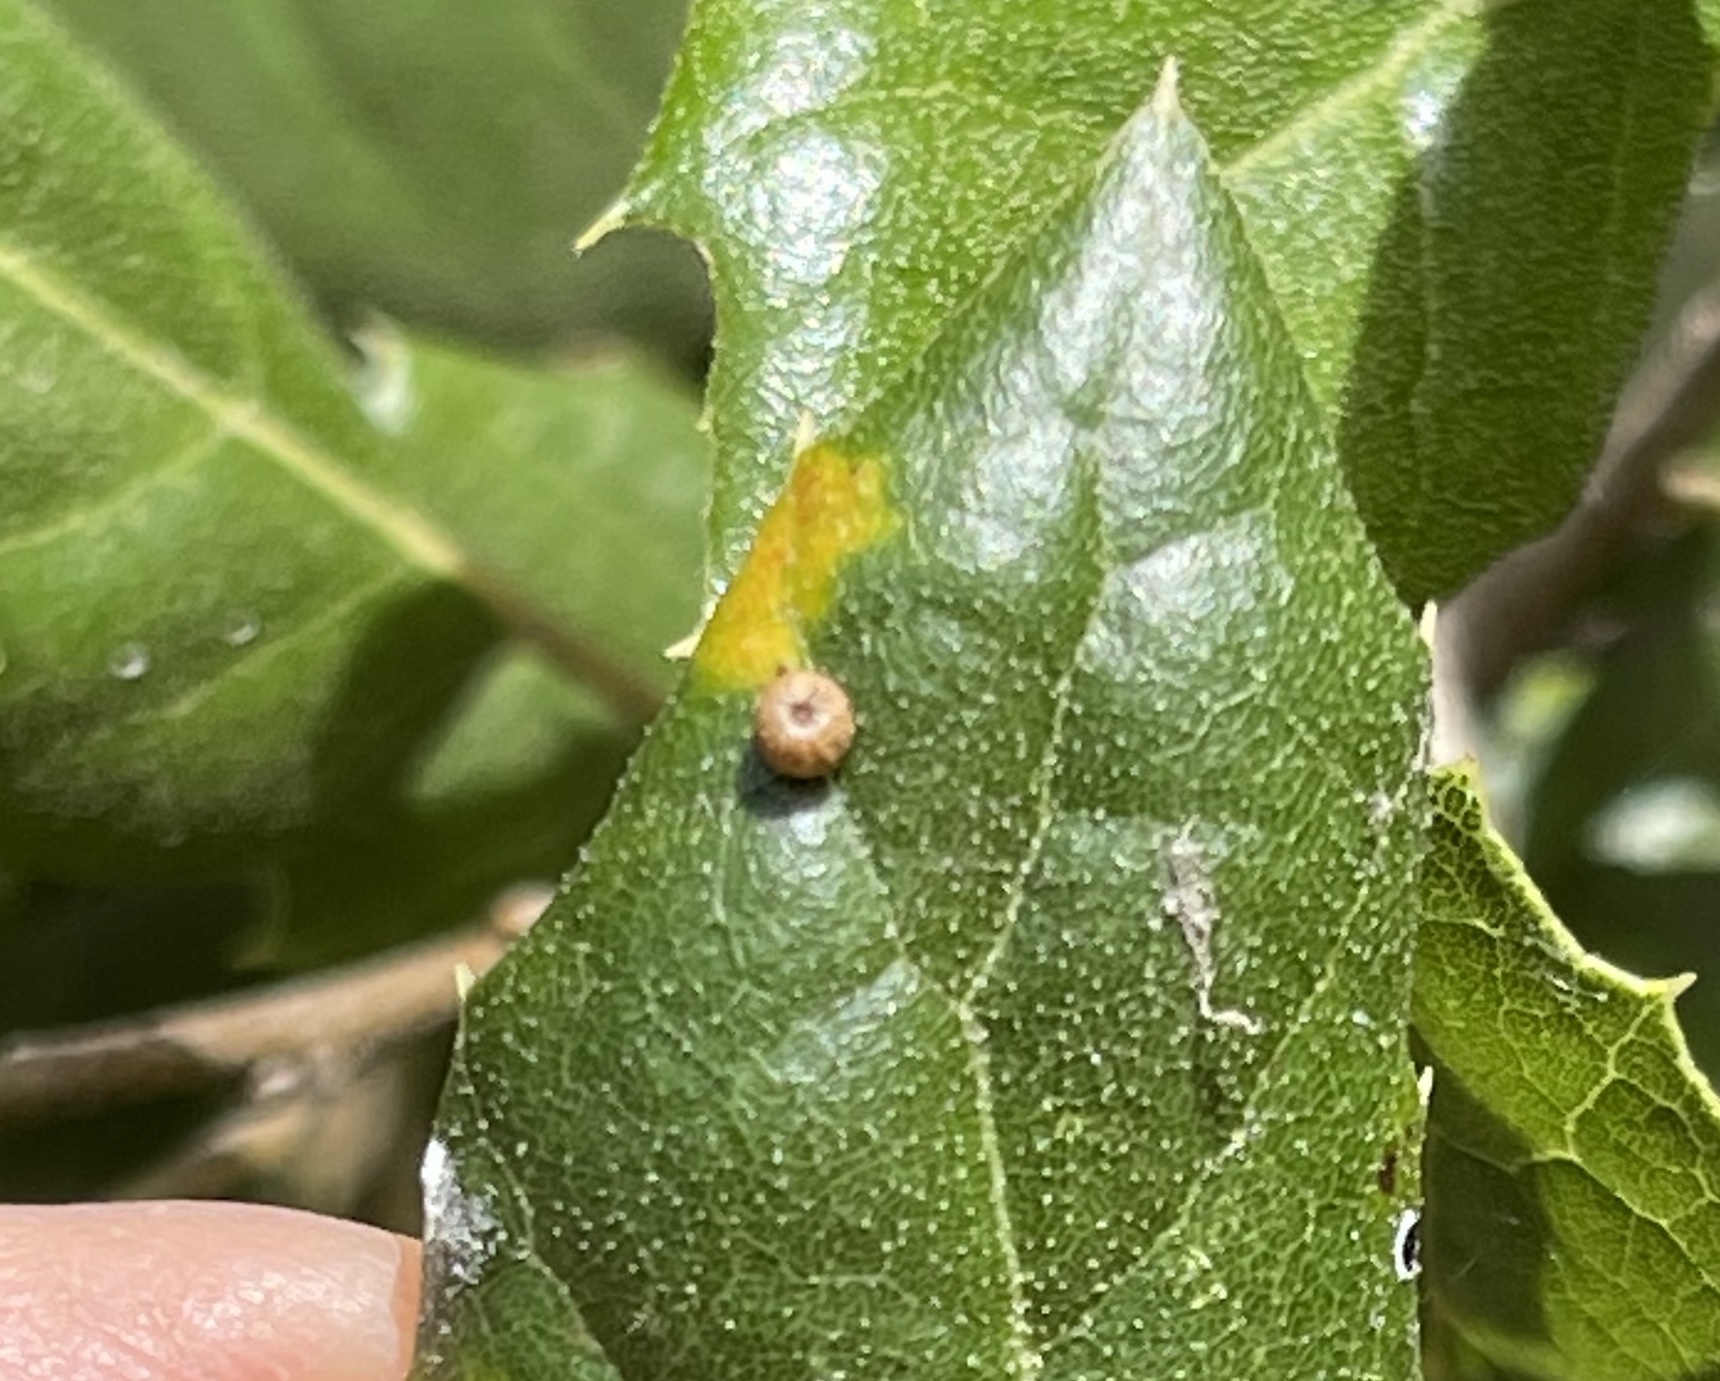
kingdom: Animalia
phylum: Arthropoda
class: Insecta
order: Hymenoptera
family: Cynipidae
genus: Dryocosmus
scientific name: Dryocosmus
